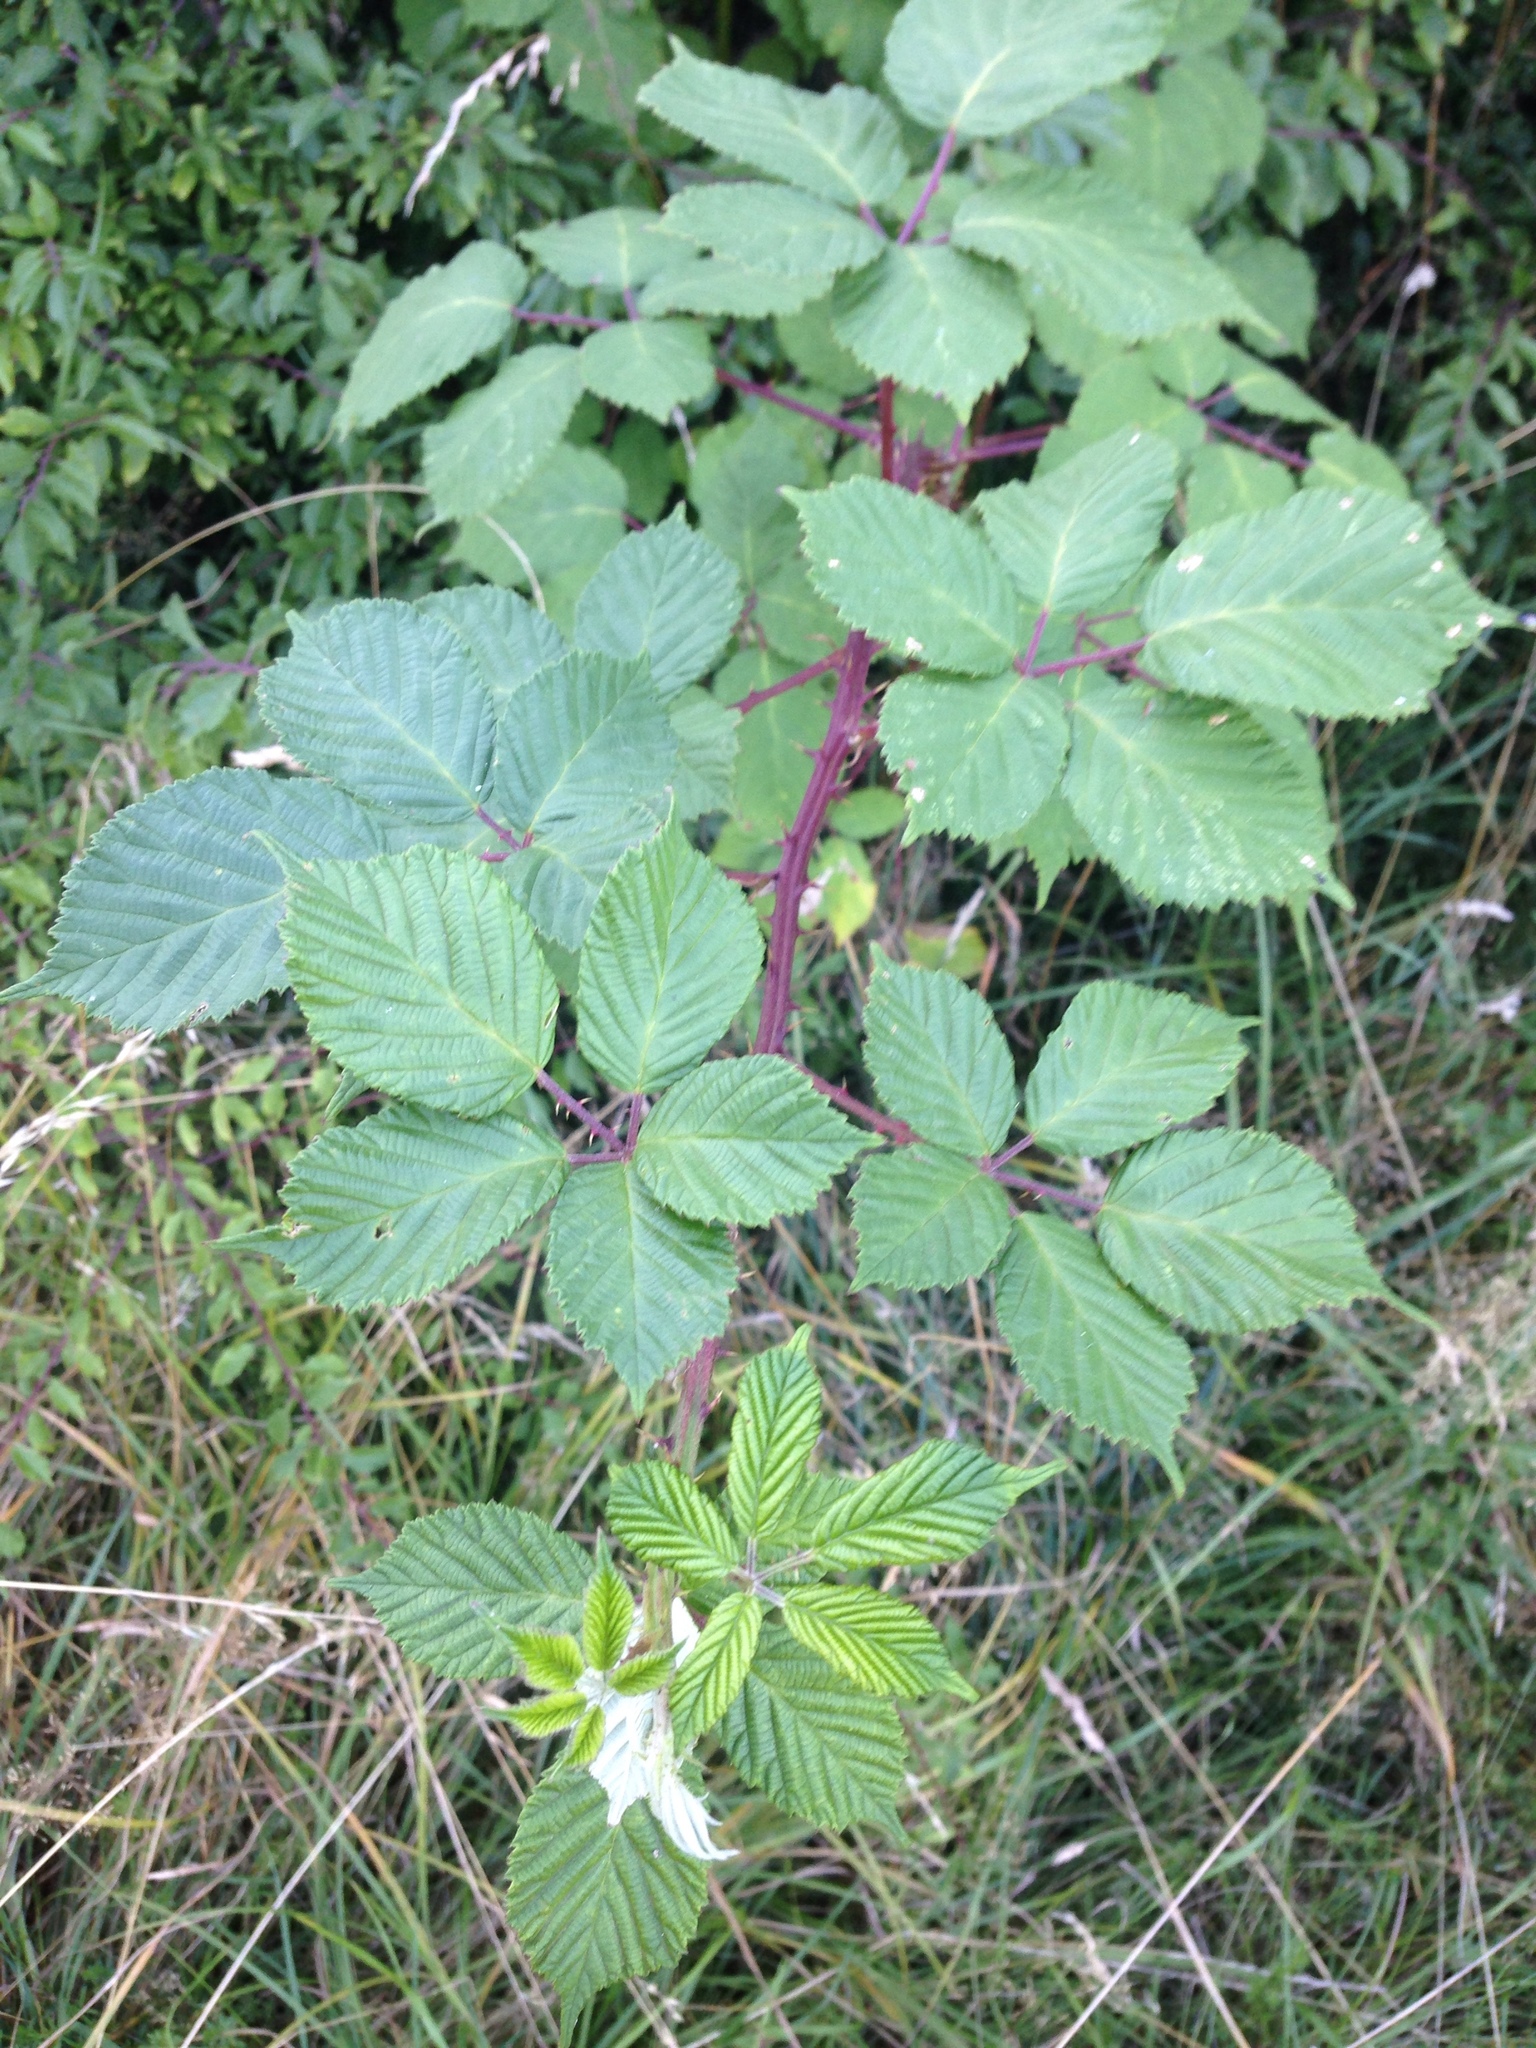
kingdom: Plantae
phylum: Tracheophyta
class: Magnoliopsida
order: Rosales
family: Rosaceae
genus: Rubus
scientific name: Rubus armeniacus
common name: Himalayan blackberry
